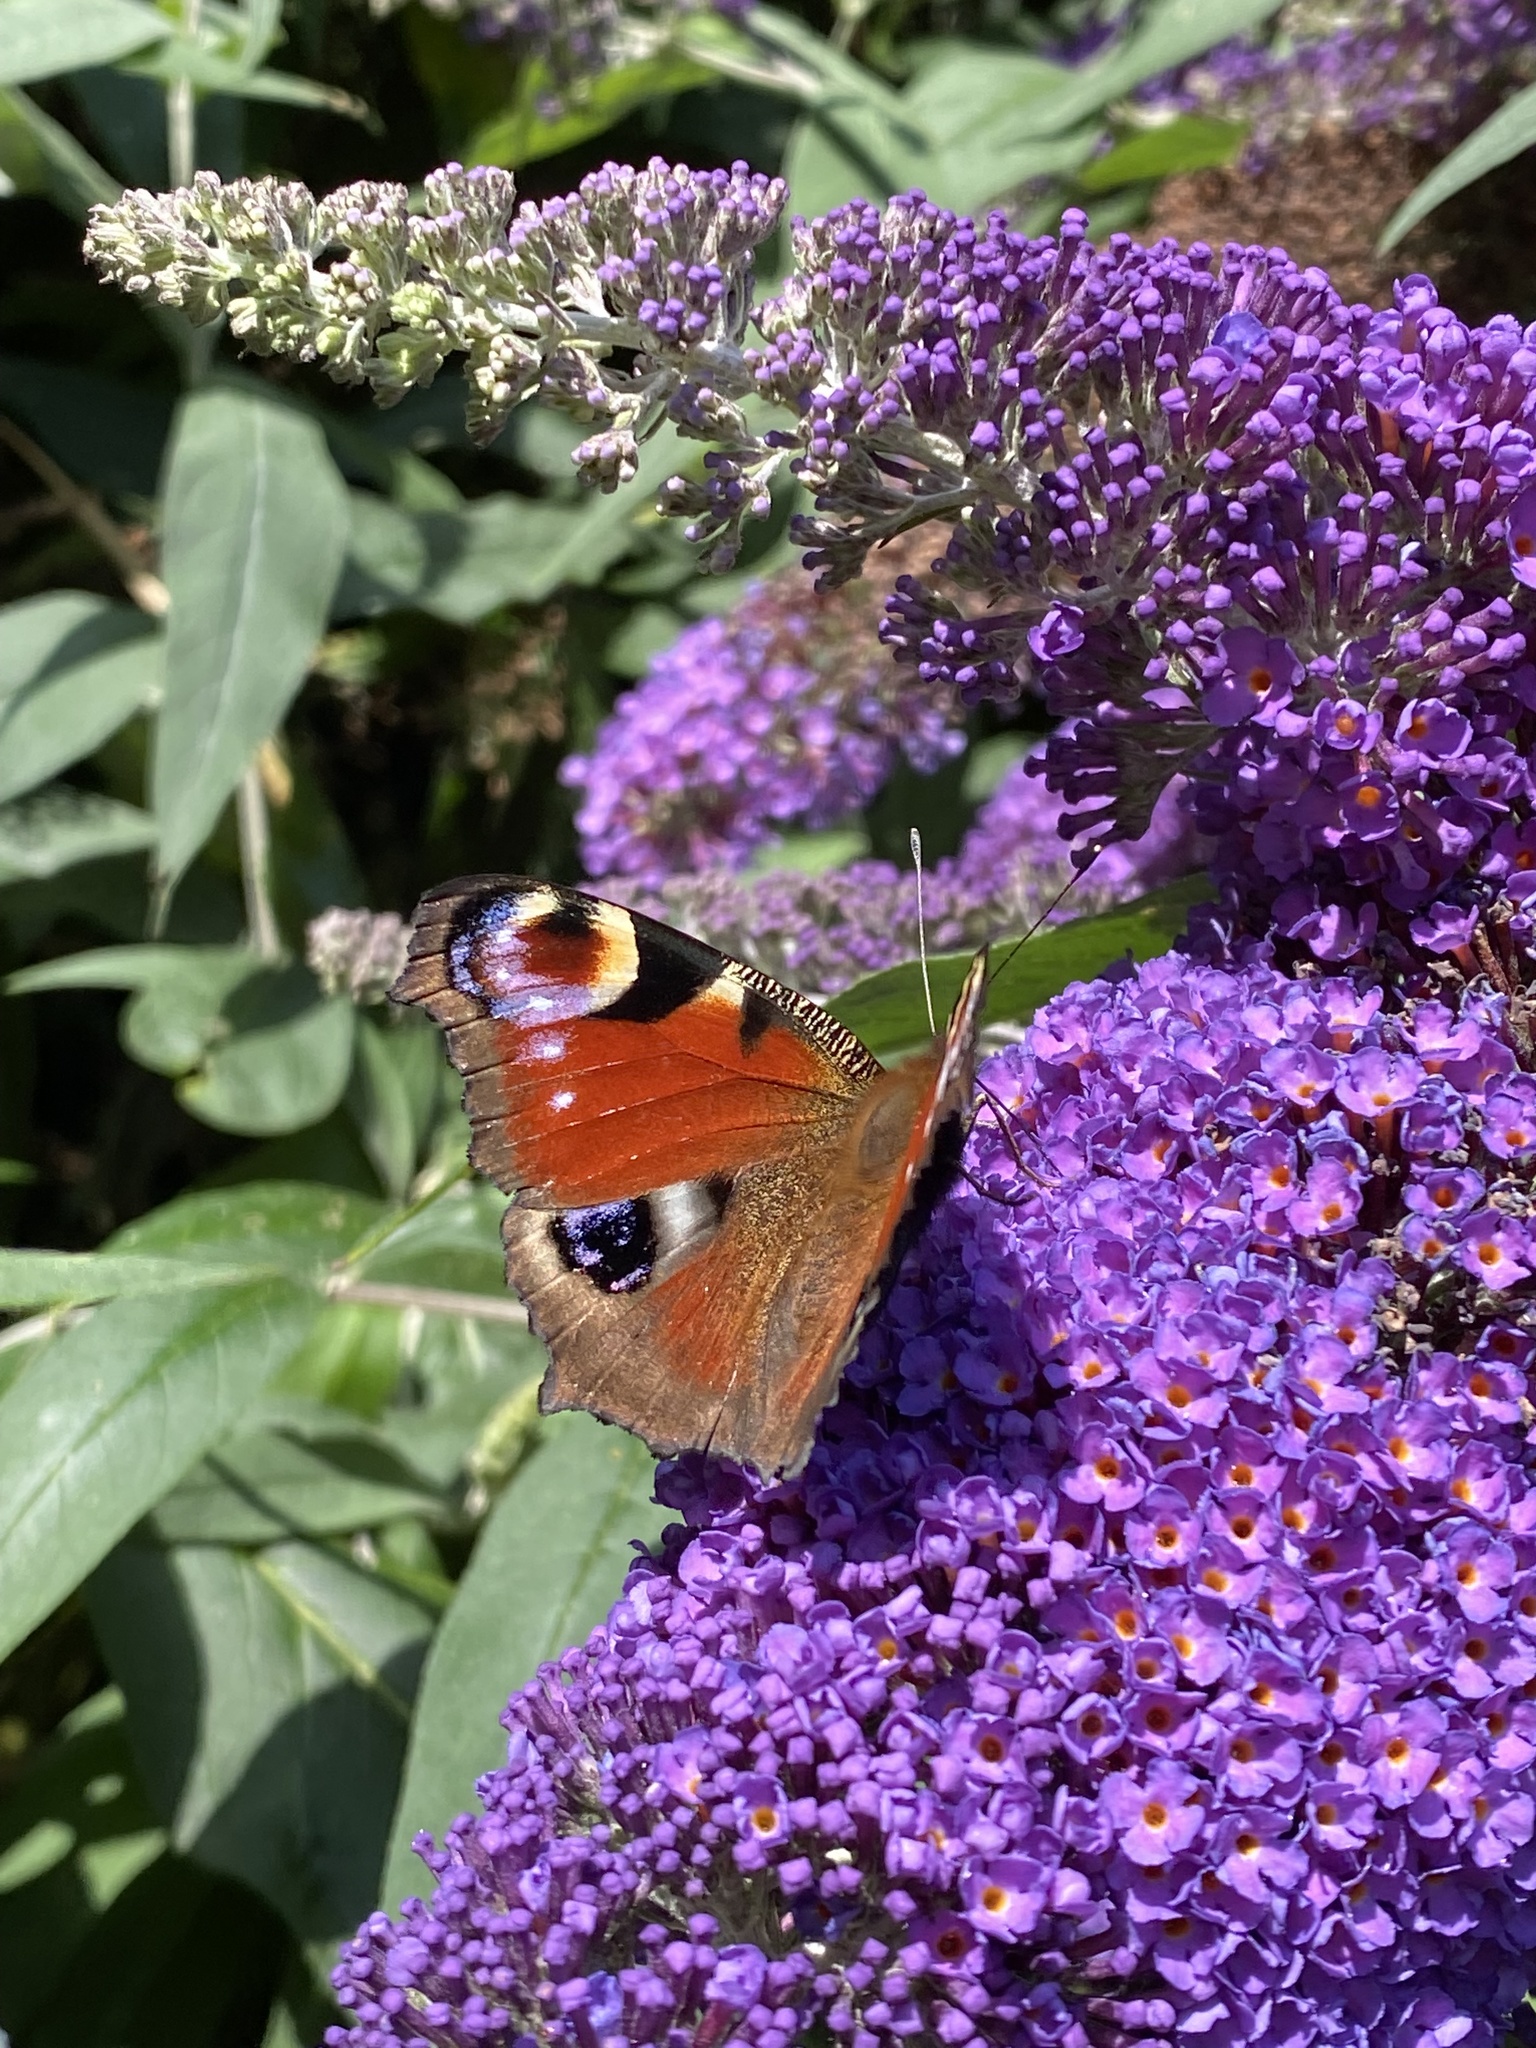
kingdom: Animalia
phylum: Arthropoda
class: Insecta
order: Lepidoptera
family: Nymphalidae
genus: Aglais
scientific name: Aglais io
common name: Peacock
